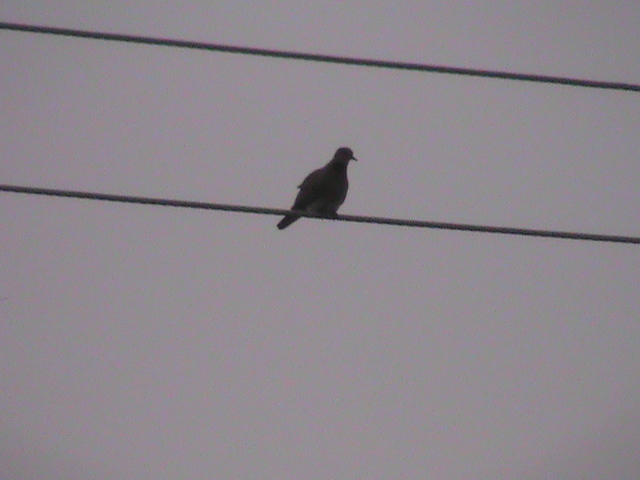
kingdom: Animalia
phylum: Chordata
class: Aves
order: Columbiformes
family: Columbidae
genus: Spilopelia
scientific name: Spilopelia senegalensis
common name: Laughing dove
